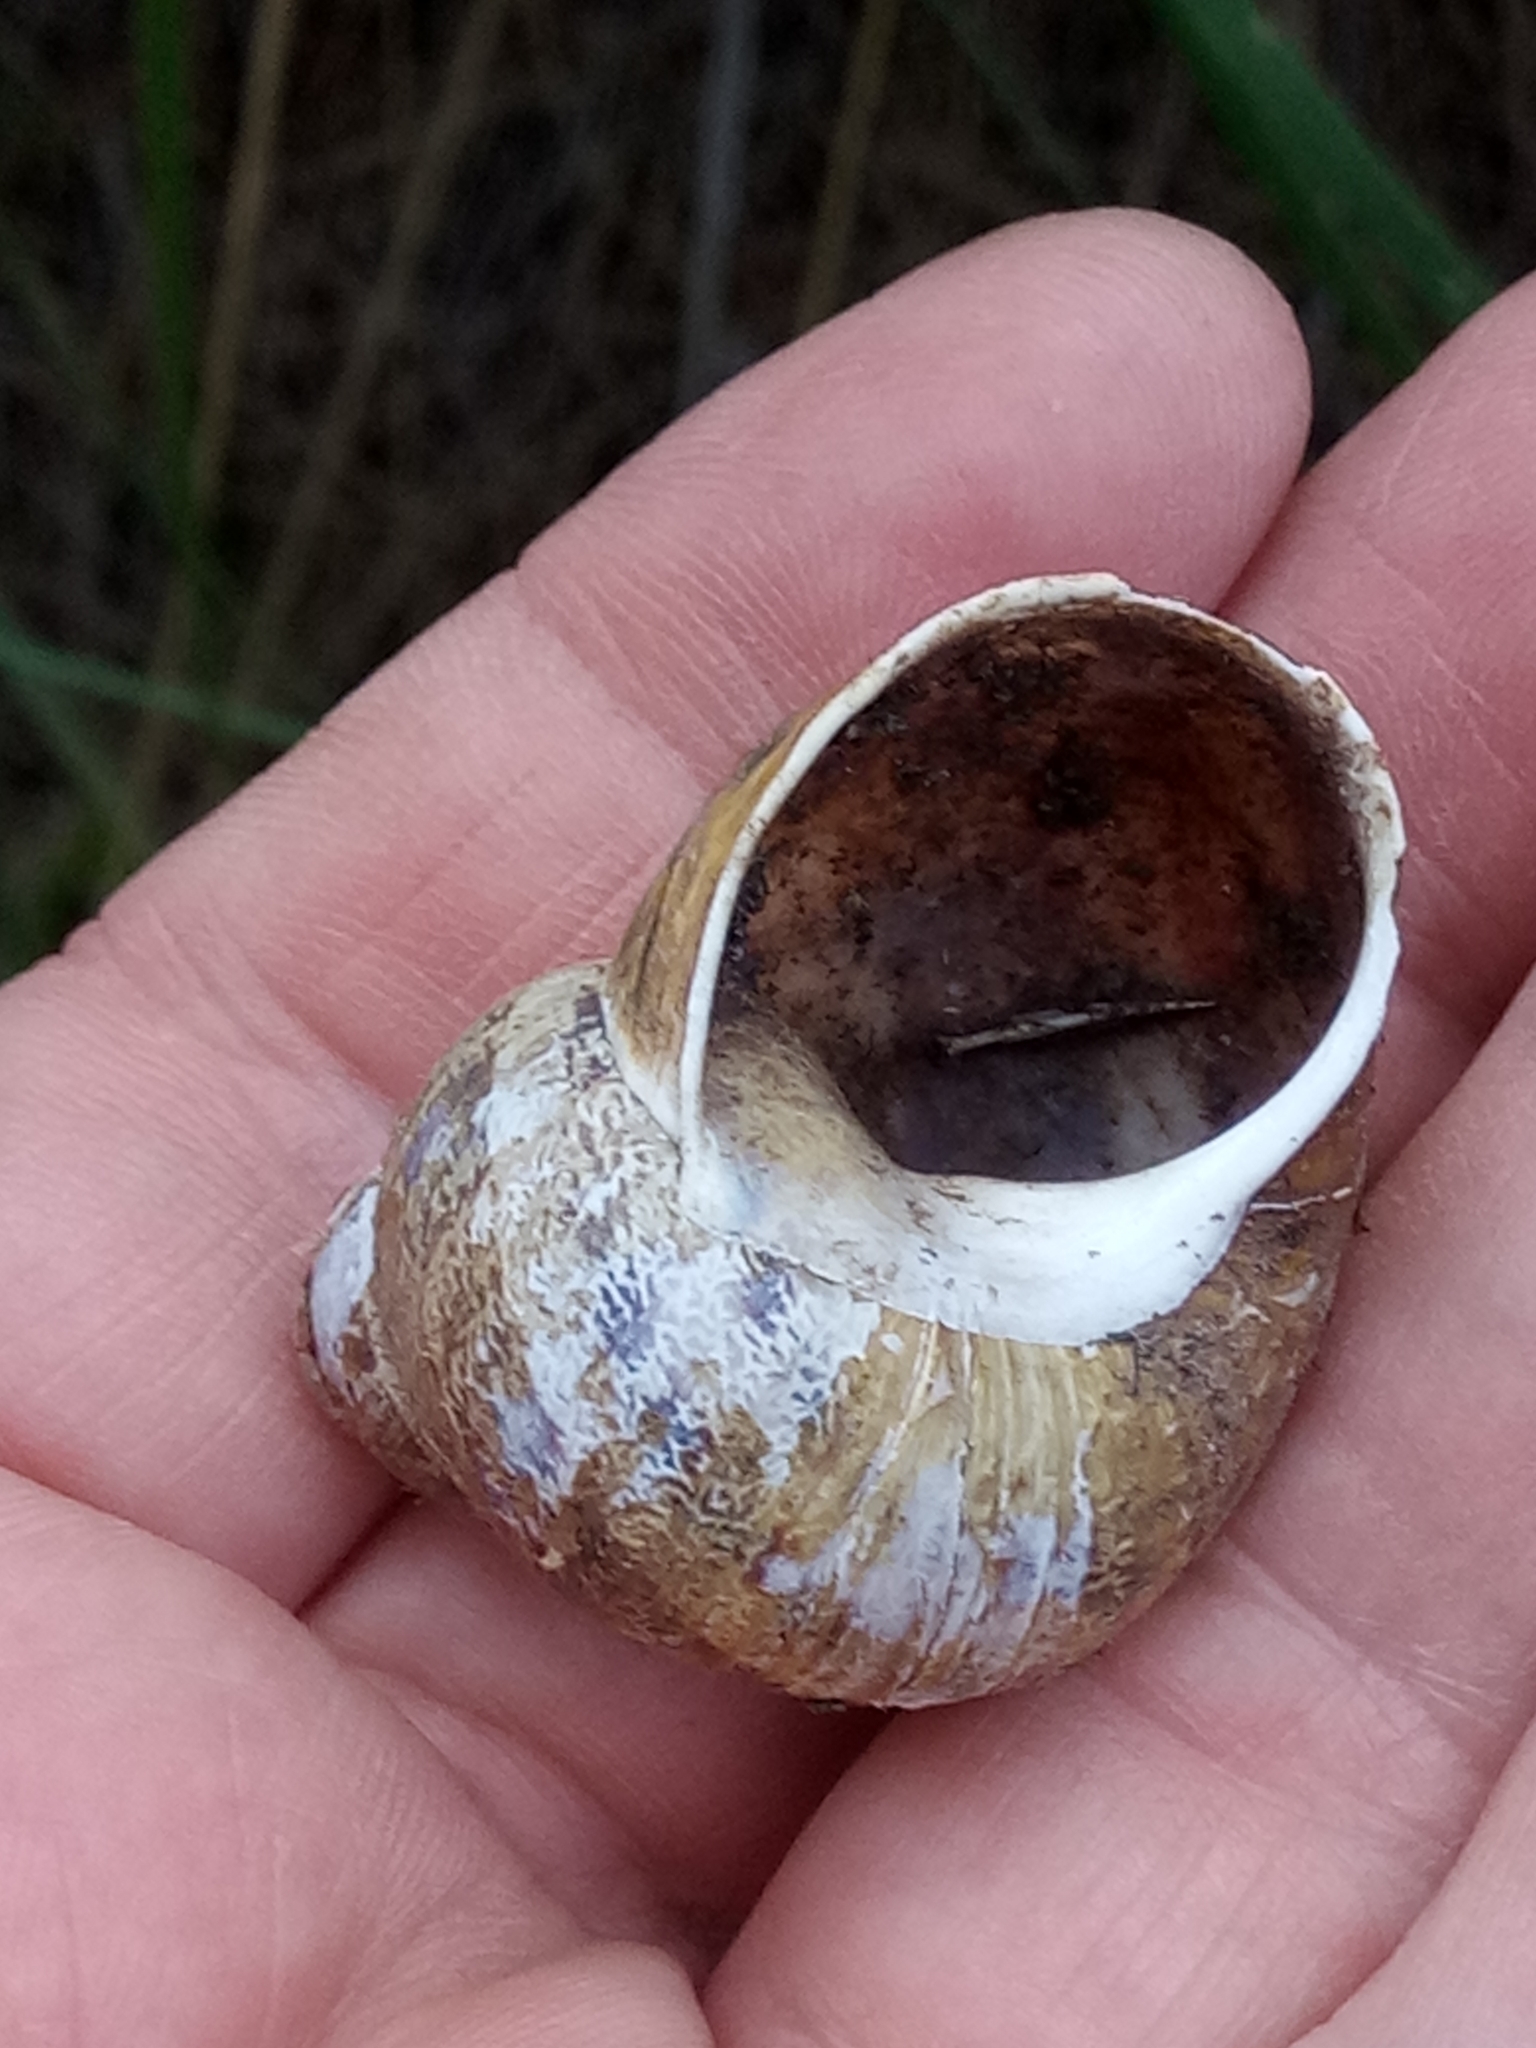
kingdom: Animalia
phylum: Mollusca
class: Gastropoda
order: Stylommatophora
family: Helicidae
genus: Cornu
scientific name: Cornu aspersum
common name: Brown garden snail
